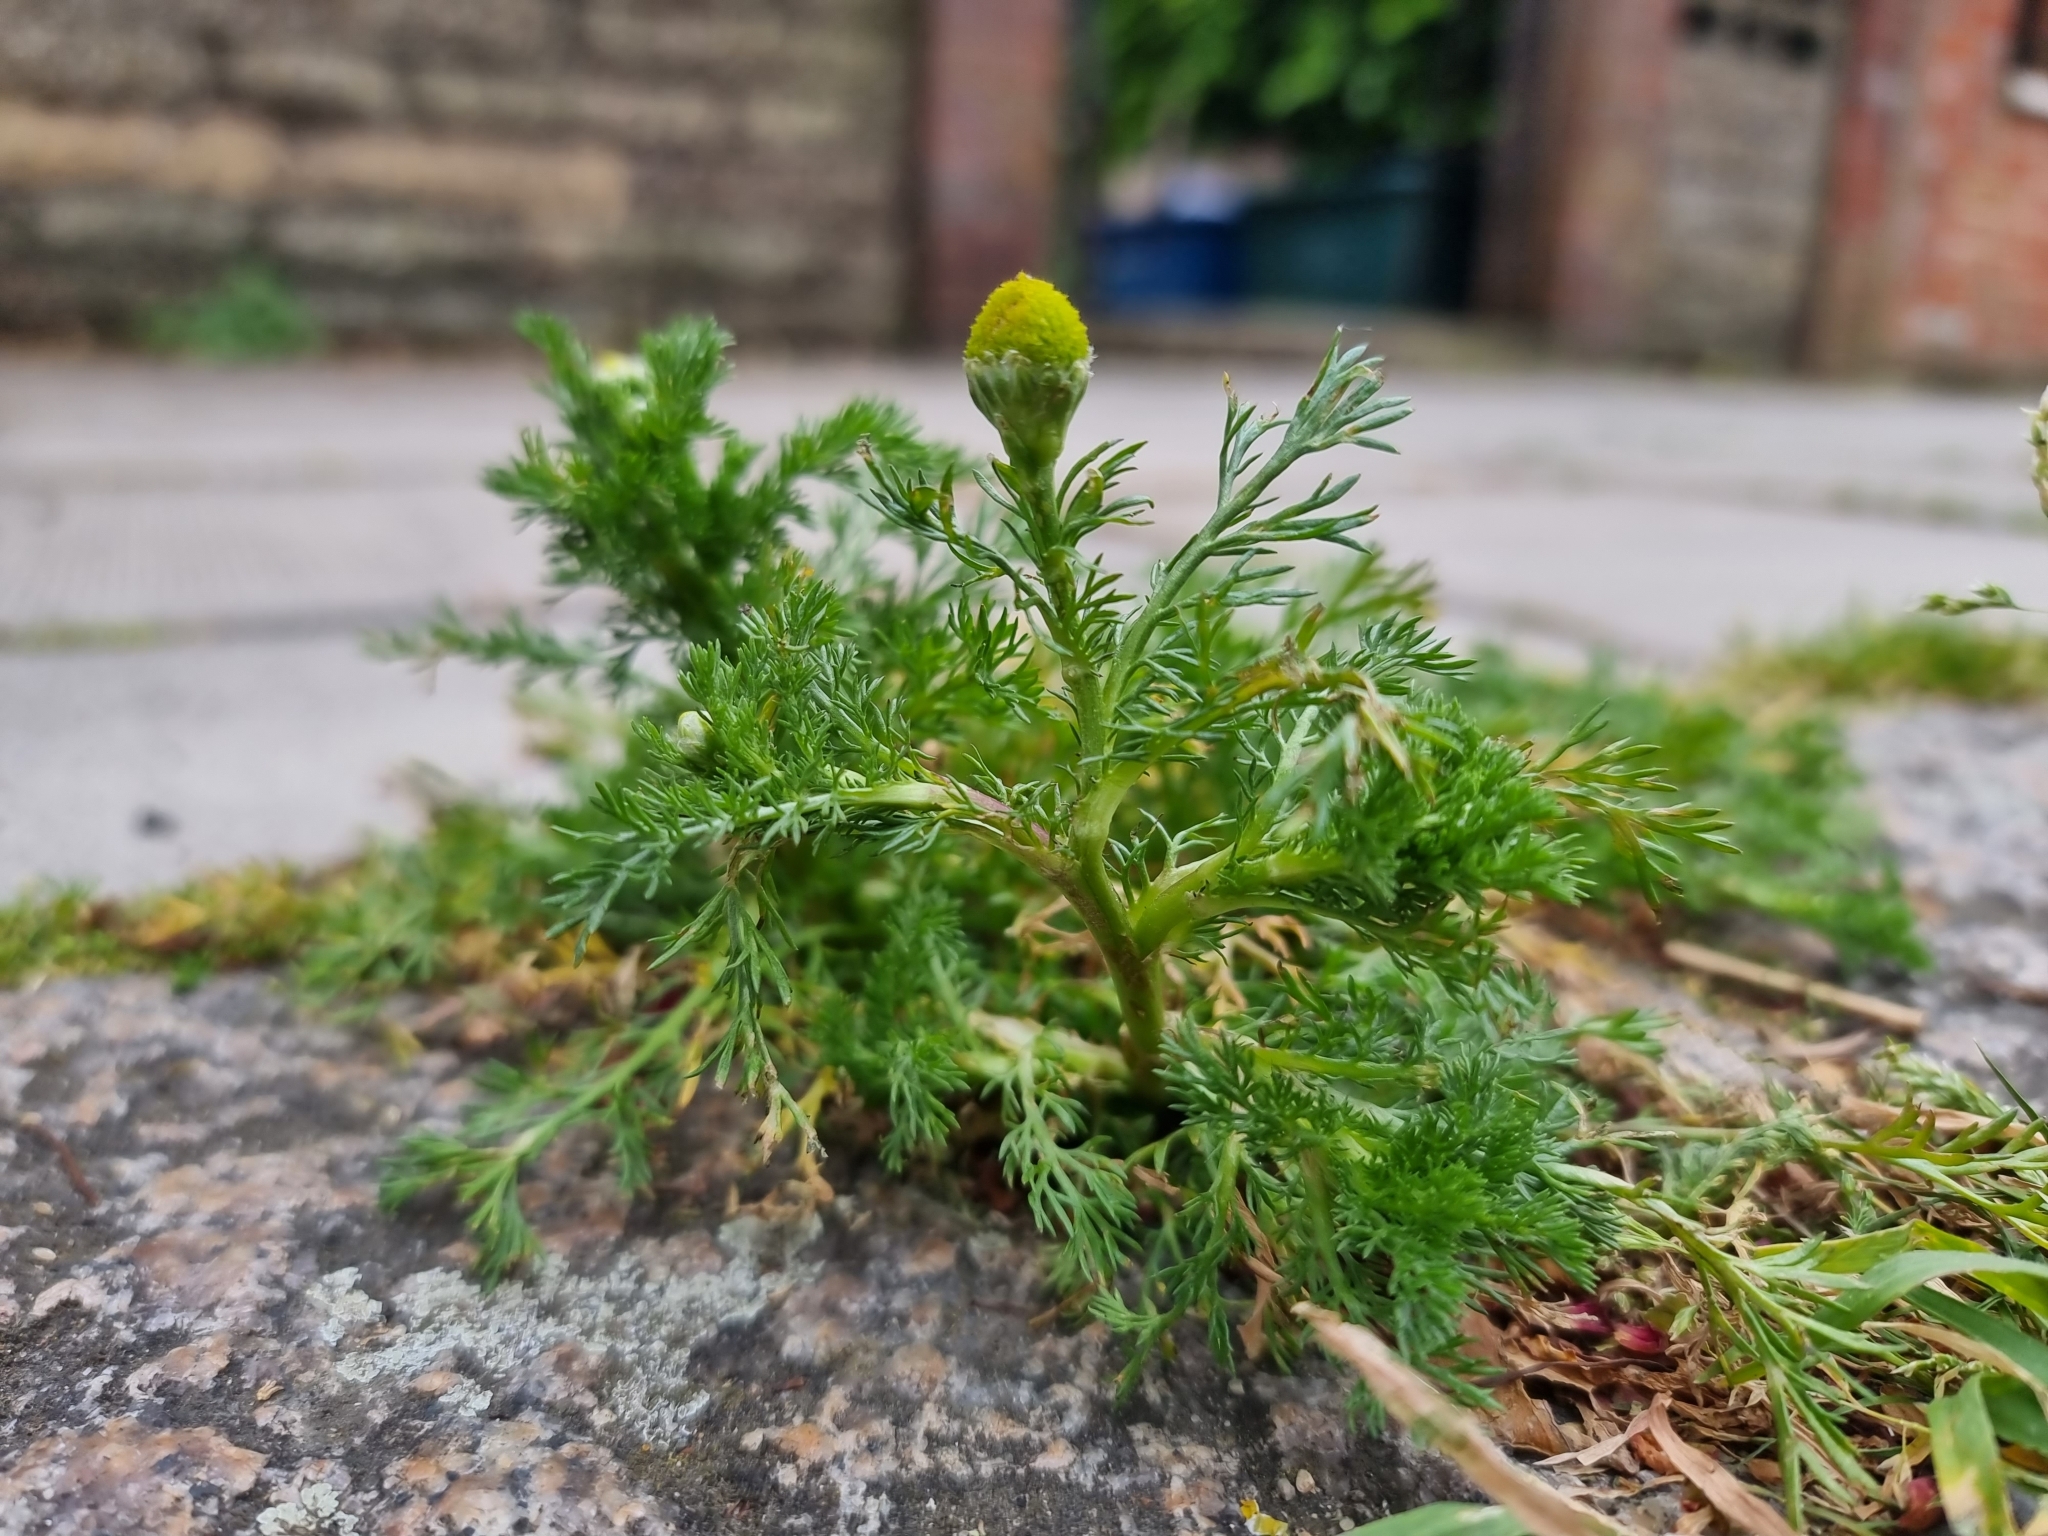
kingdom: Plantae
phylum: Tracheophyta
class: Magnoliopsida
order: Asterales
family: Asteraceae
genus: Matricaria
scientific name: Matricaria discoidea
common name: Disc mayweed
